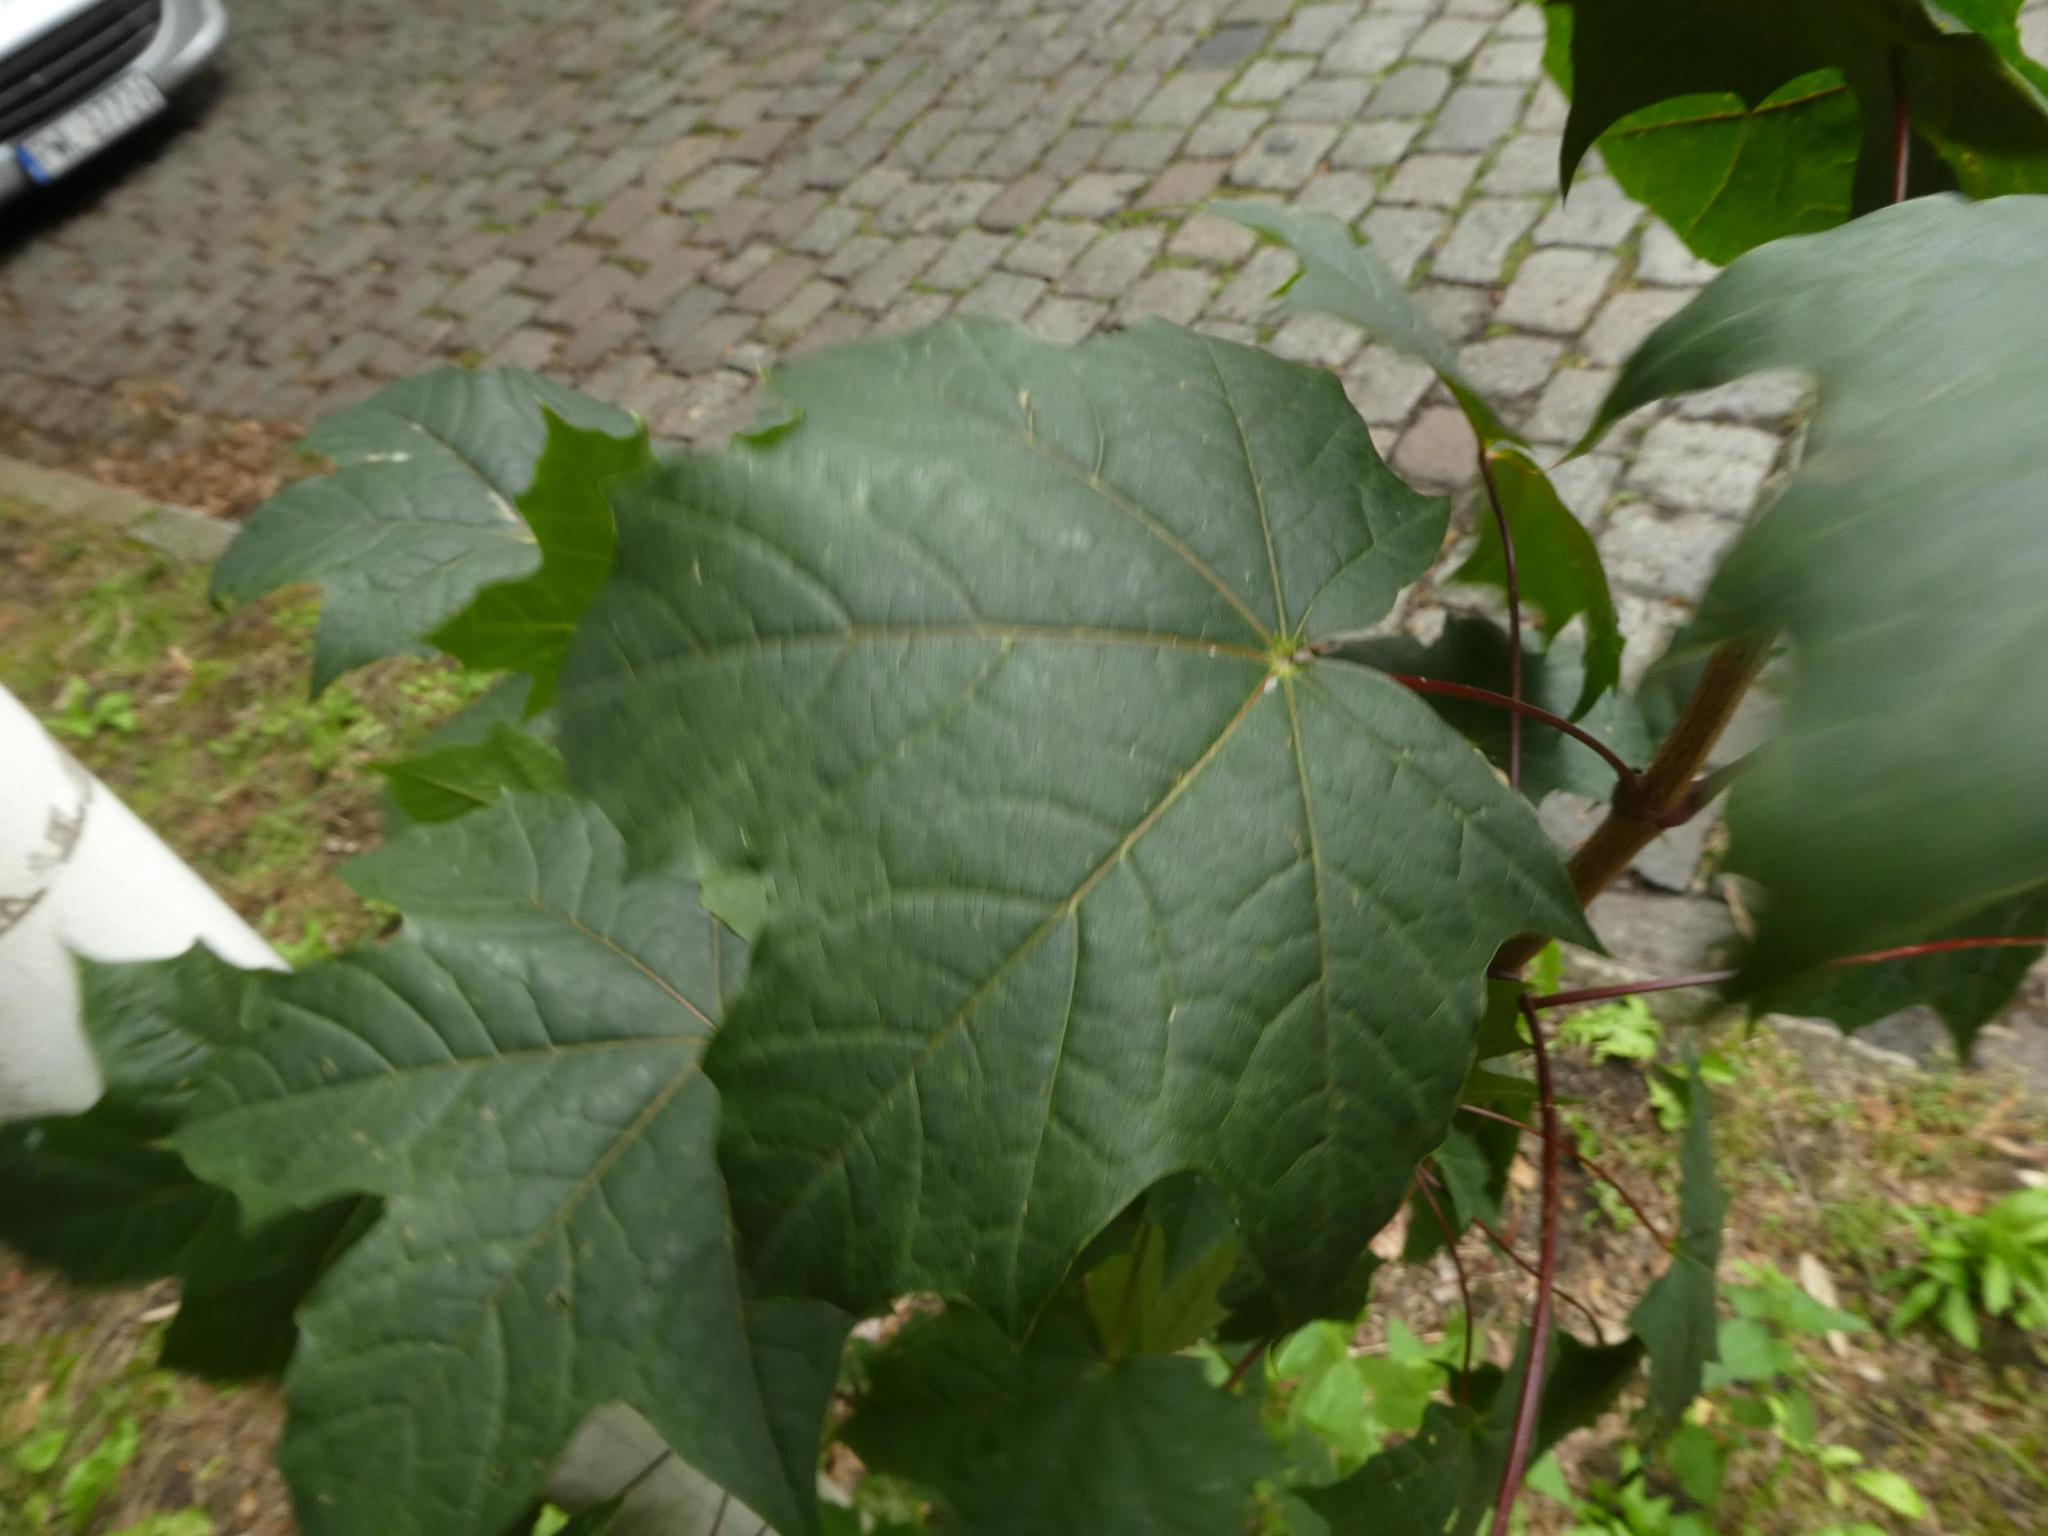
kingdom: Plantae
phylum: Tracheophyta
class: Magnoliopsida
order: Sapindales
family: Sapindaceae
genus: Acer
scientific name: Acer platanoides
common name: Norway maple
